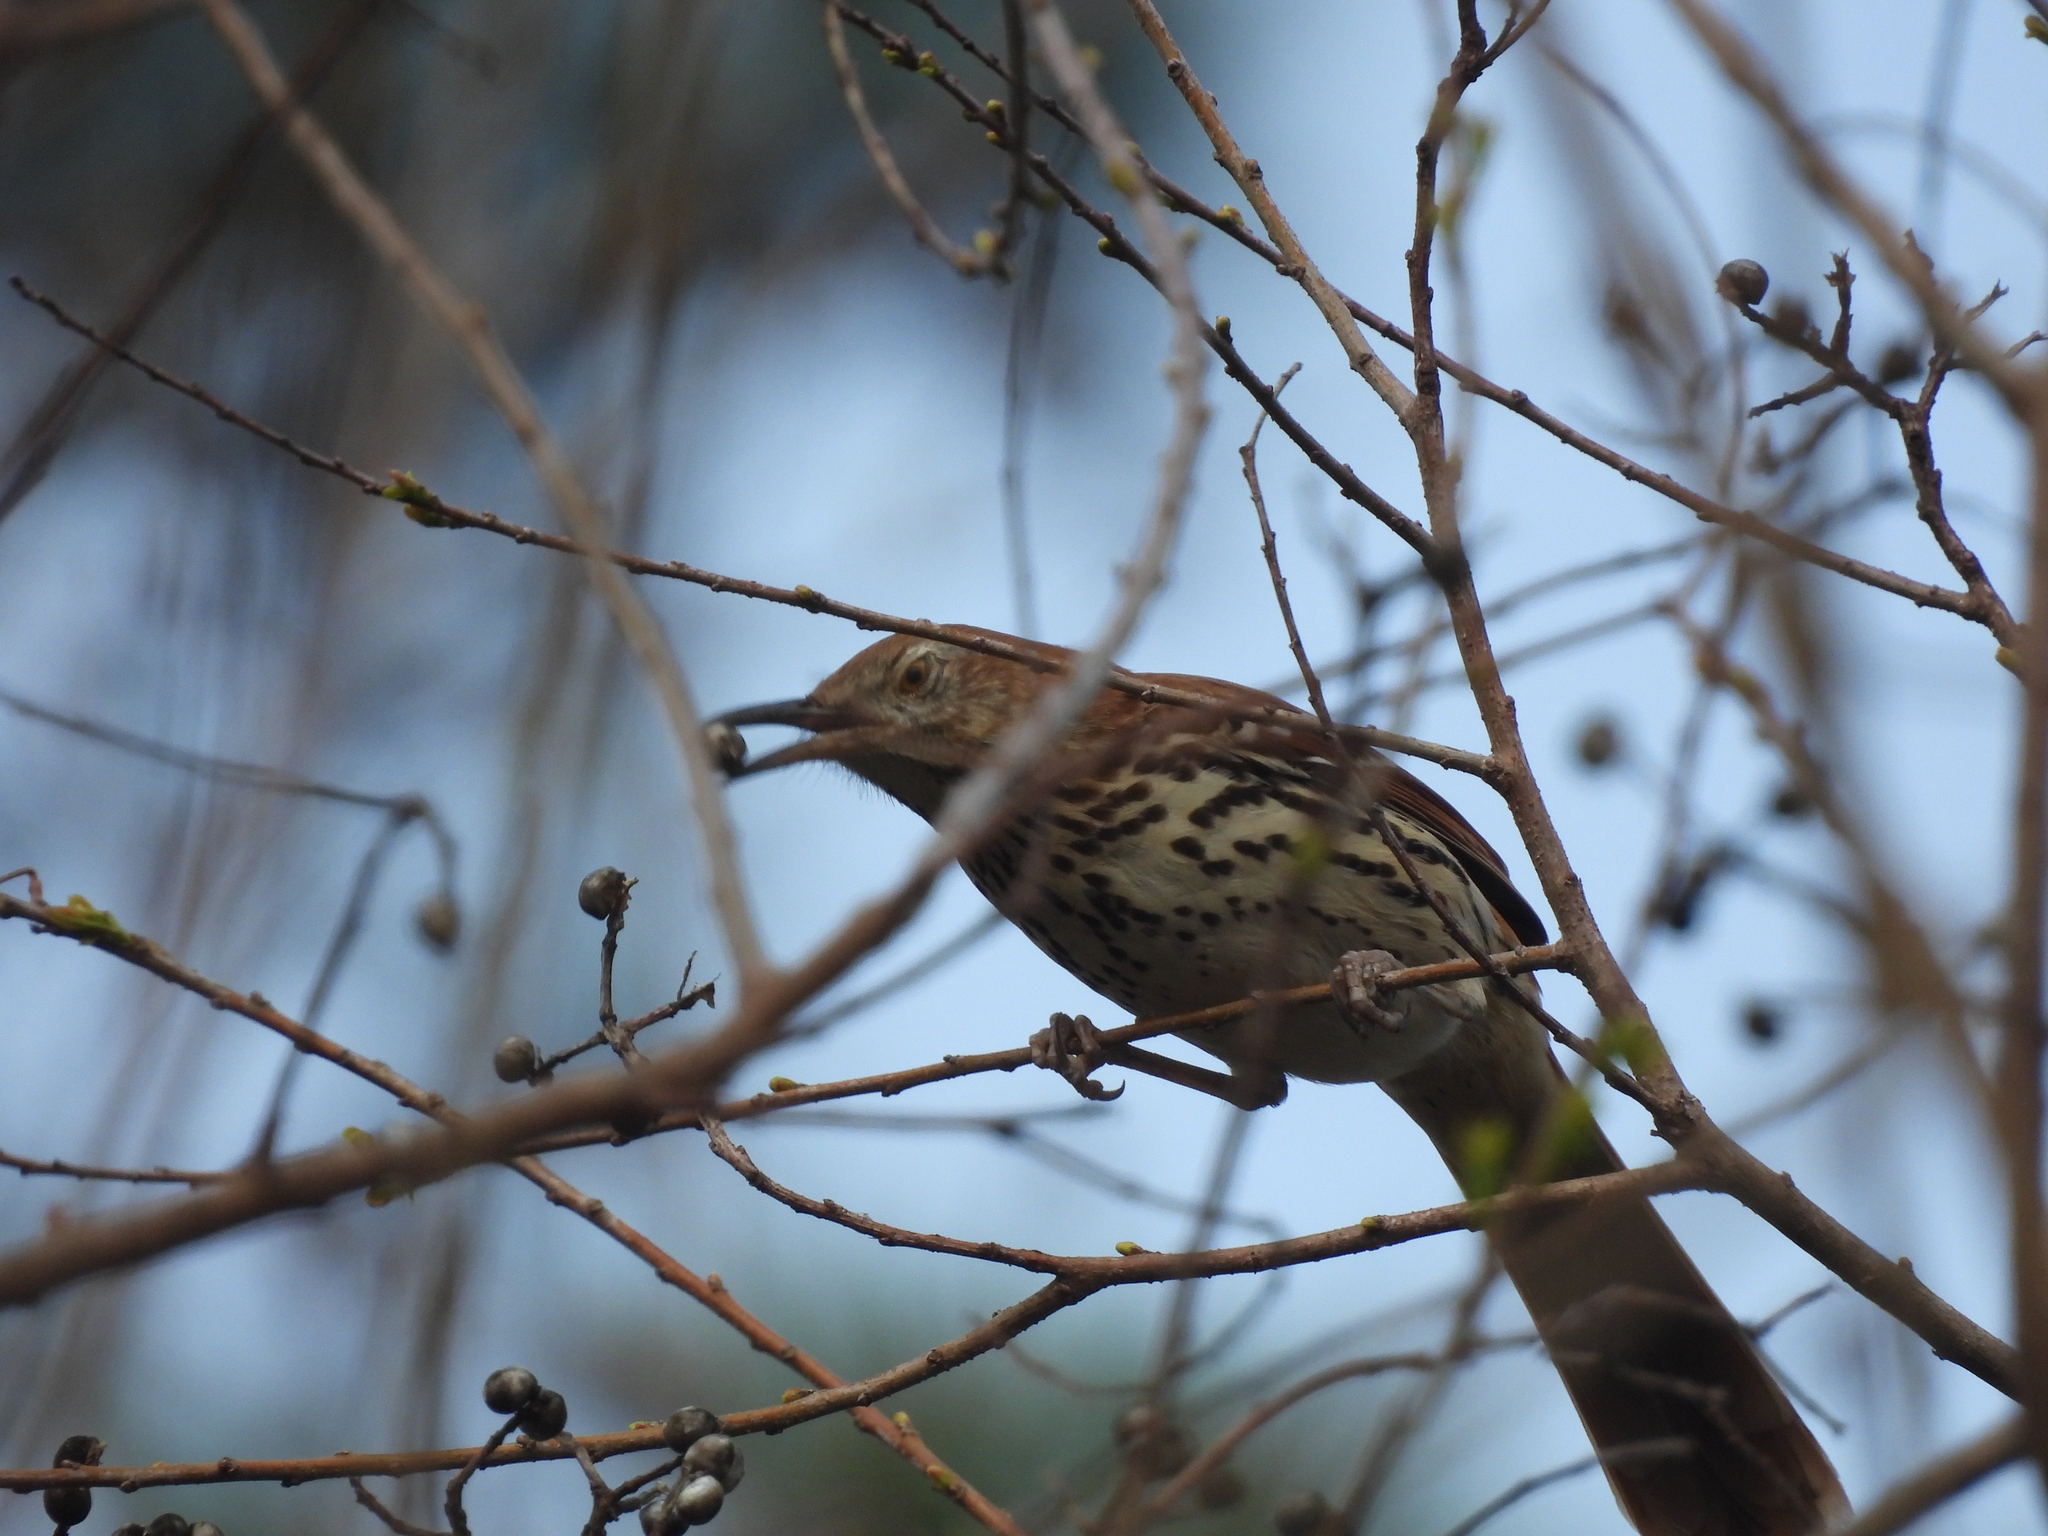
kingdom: Animalia
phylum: Chordata
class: Aves
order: Passeriformes
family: Mimidae
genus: Toxostoma
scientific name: Toxostoma rufum
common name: Brown thrasher
